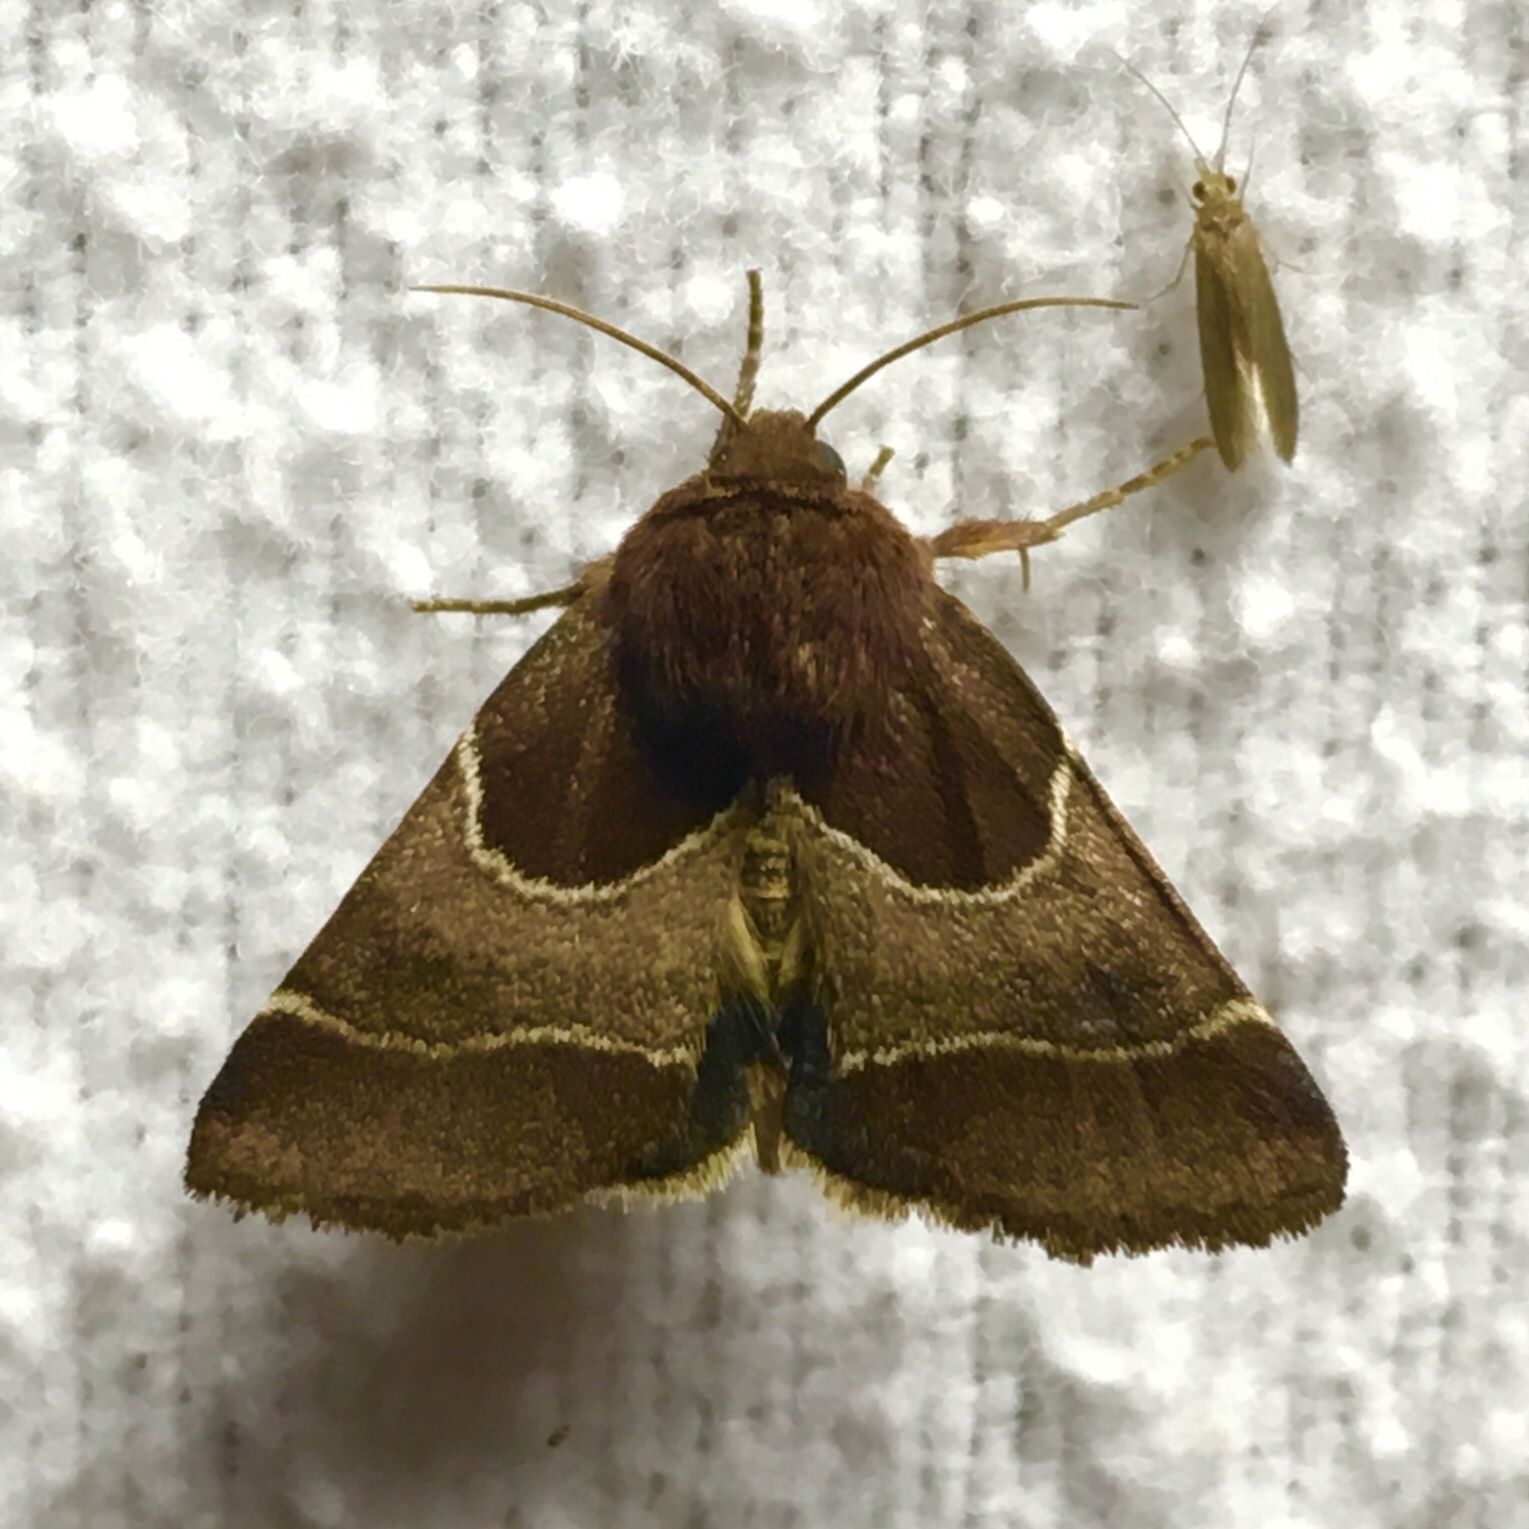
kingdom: Animalia
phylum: Arthropoda
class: Insecta
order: Lepidoptera
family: Noctuidae
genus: Schinia
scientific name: Schinia arcigera
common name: Arcigera flower moth
